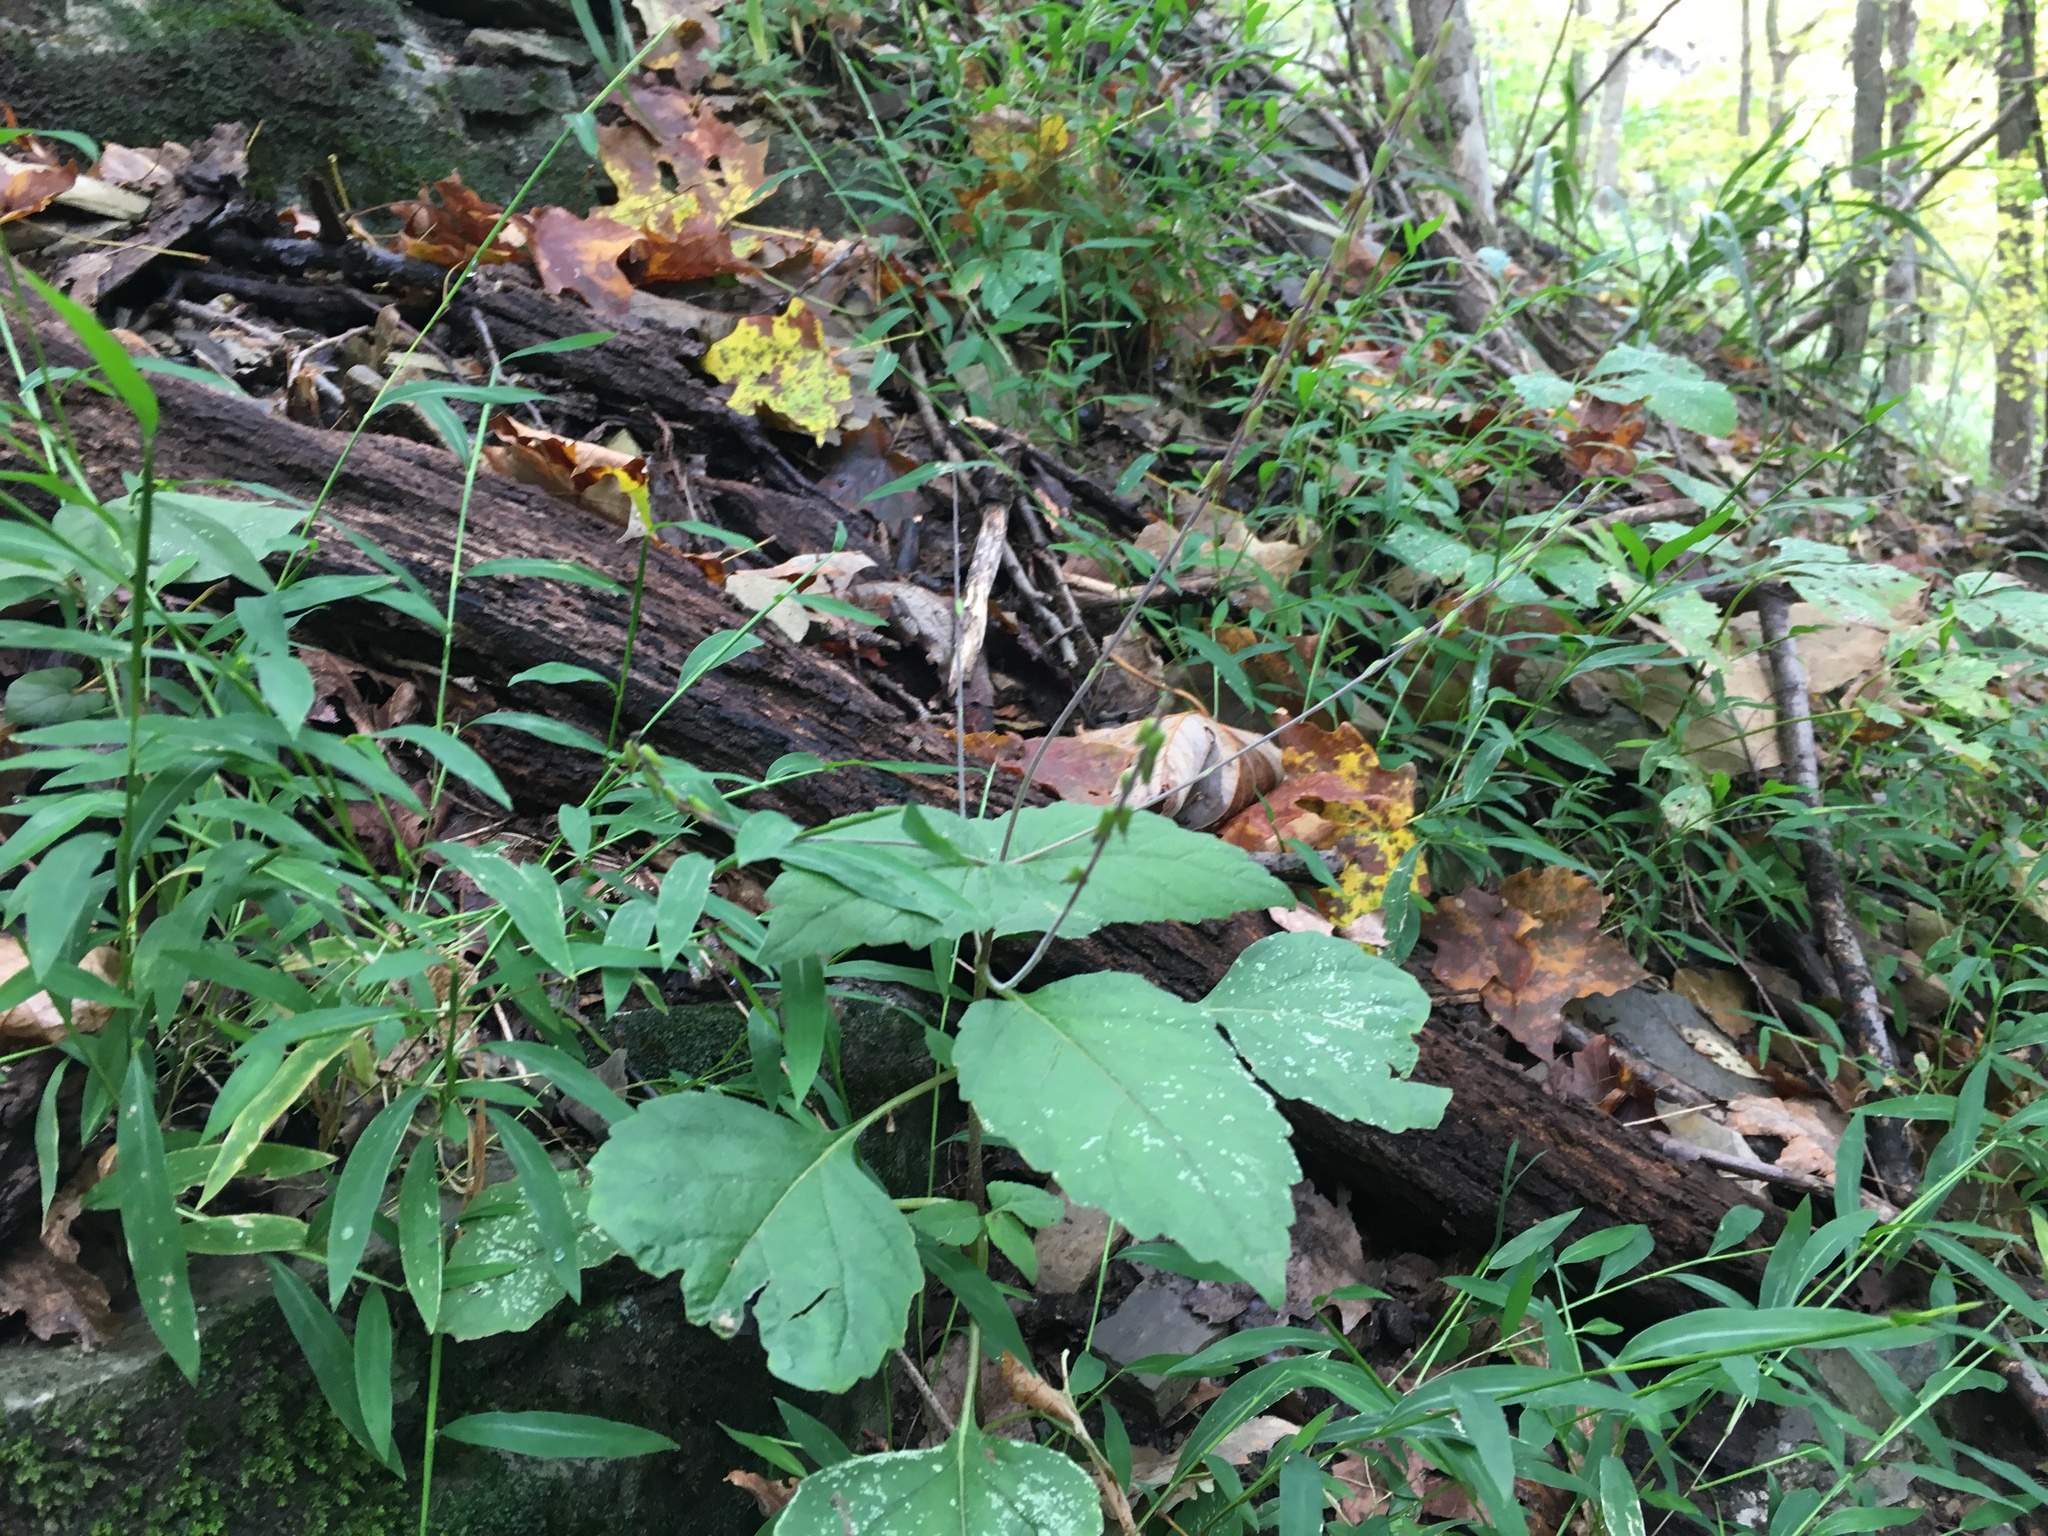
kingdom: Plantae
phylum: Tracheophyta
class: Magnoliopsida
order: Lamiales
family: Phrymaceae
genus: Phryma
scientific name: Phryma leptostachya
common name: American lopseed
